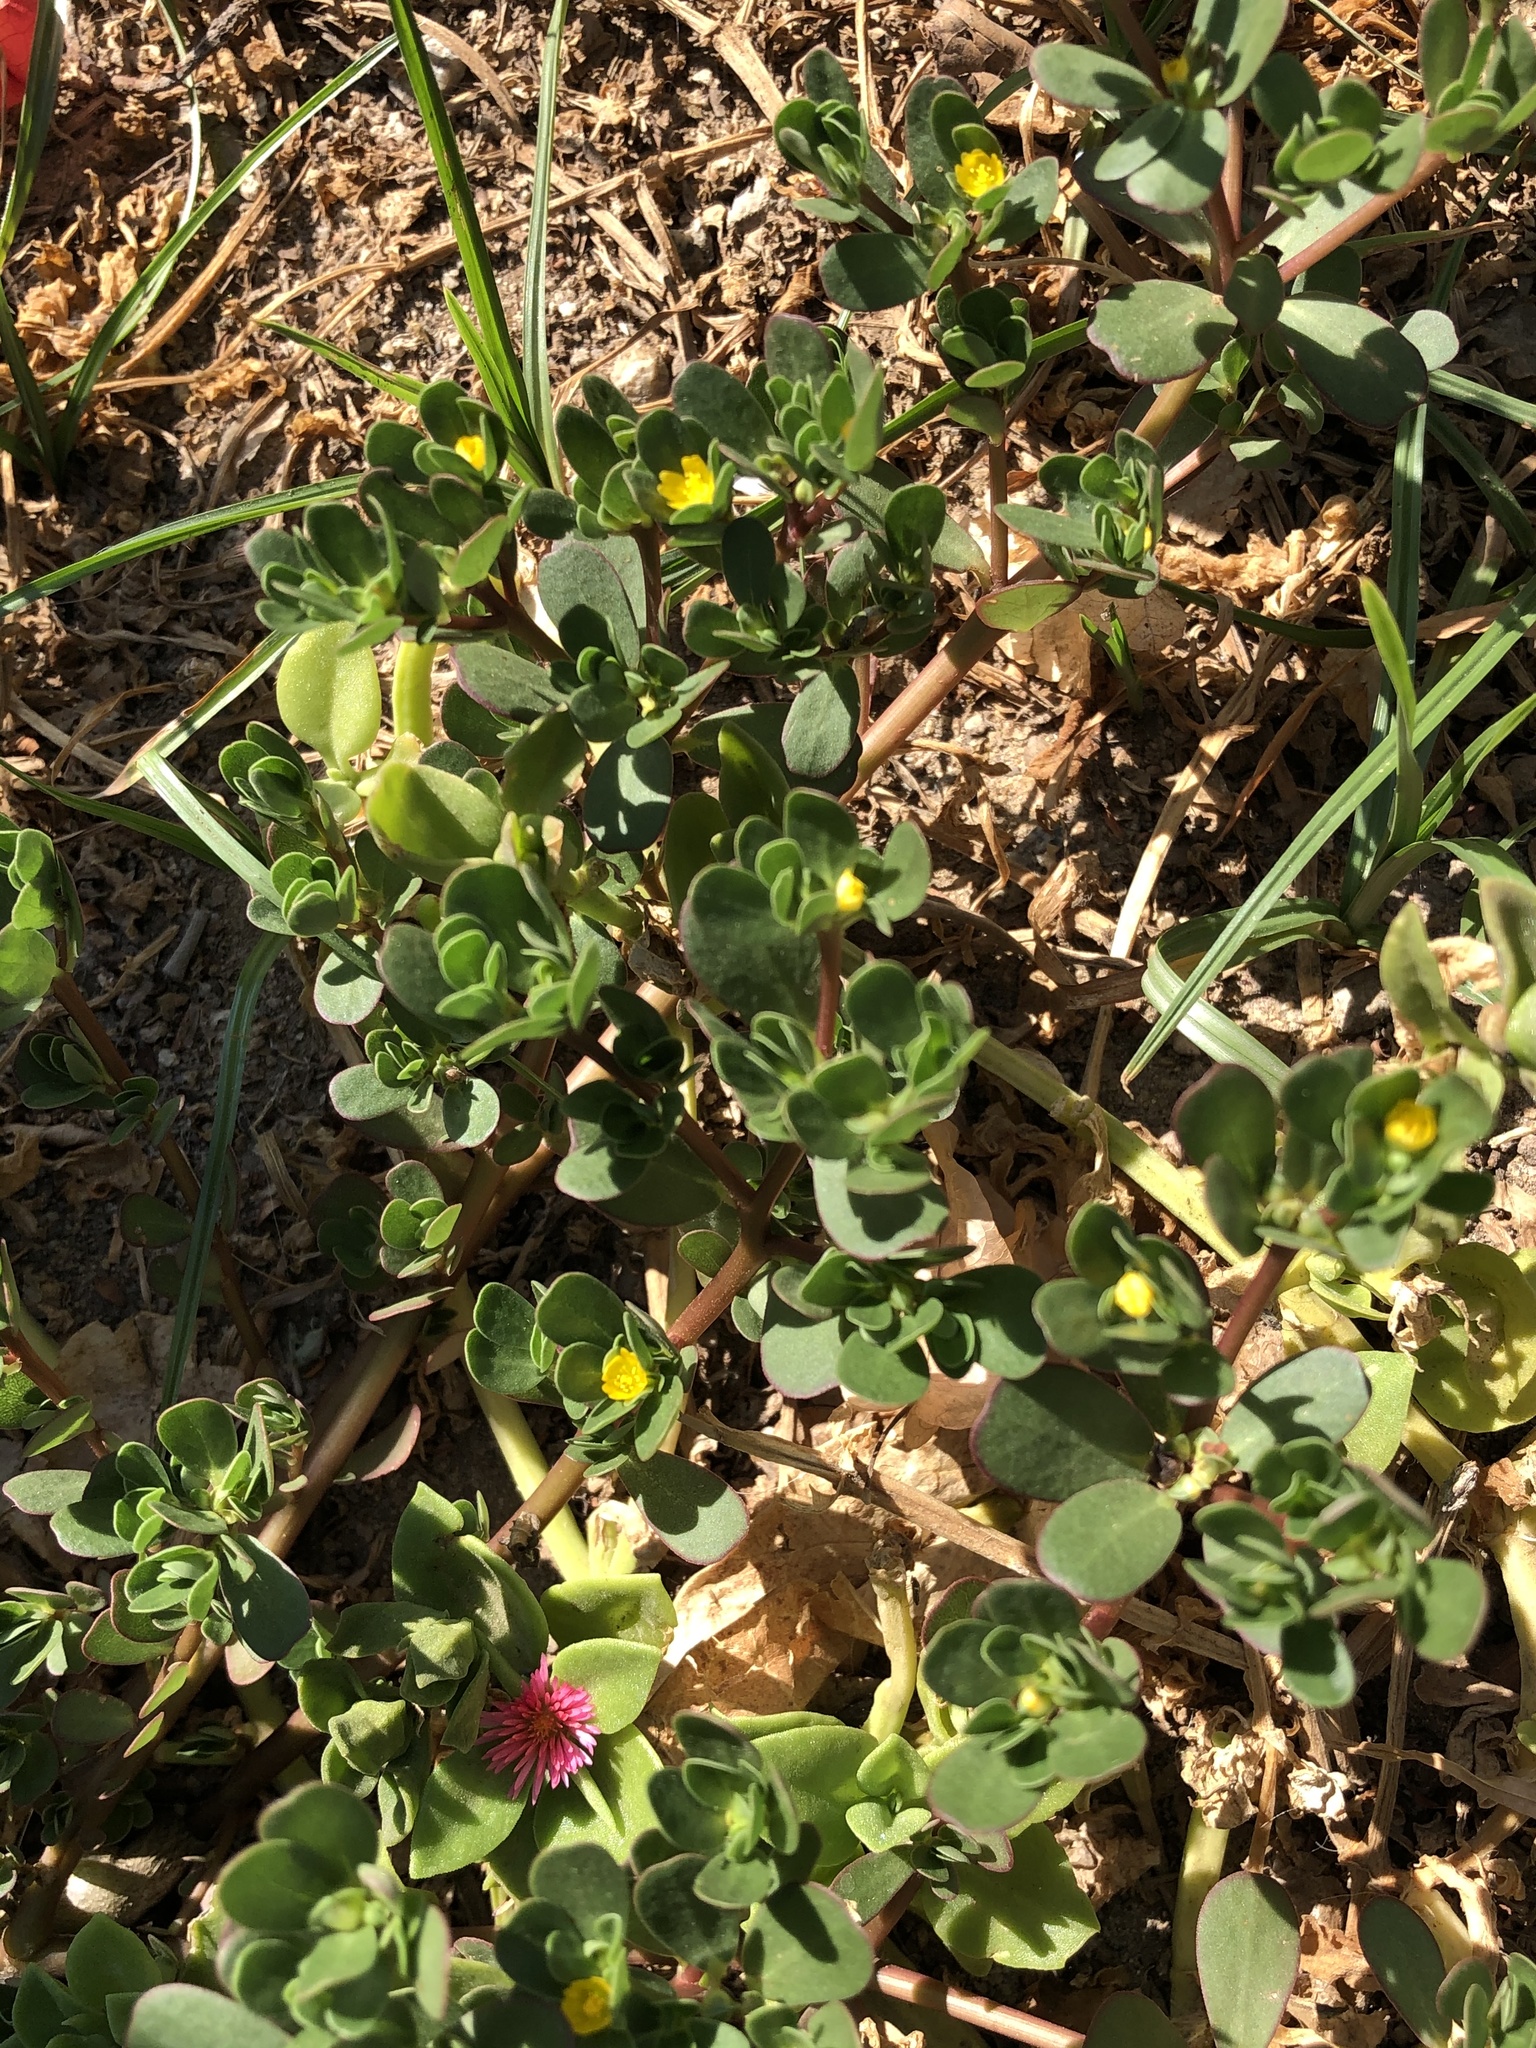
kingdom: Plantae
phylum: Tracheophyta
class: Magnoliopsida
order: Caryophyllales
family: Portulacaceae
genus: Portulaca
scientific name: Portulaca oleracea
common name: Common purslane
